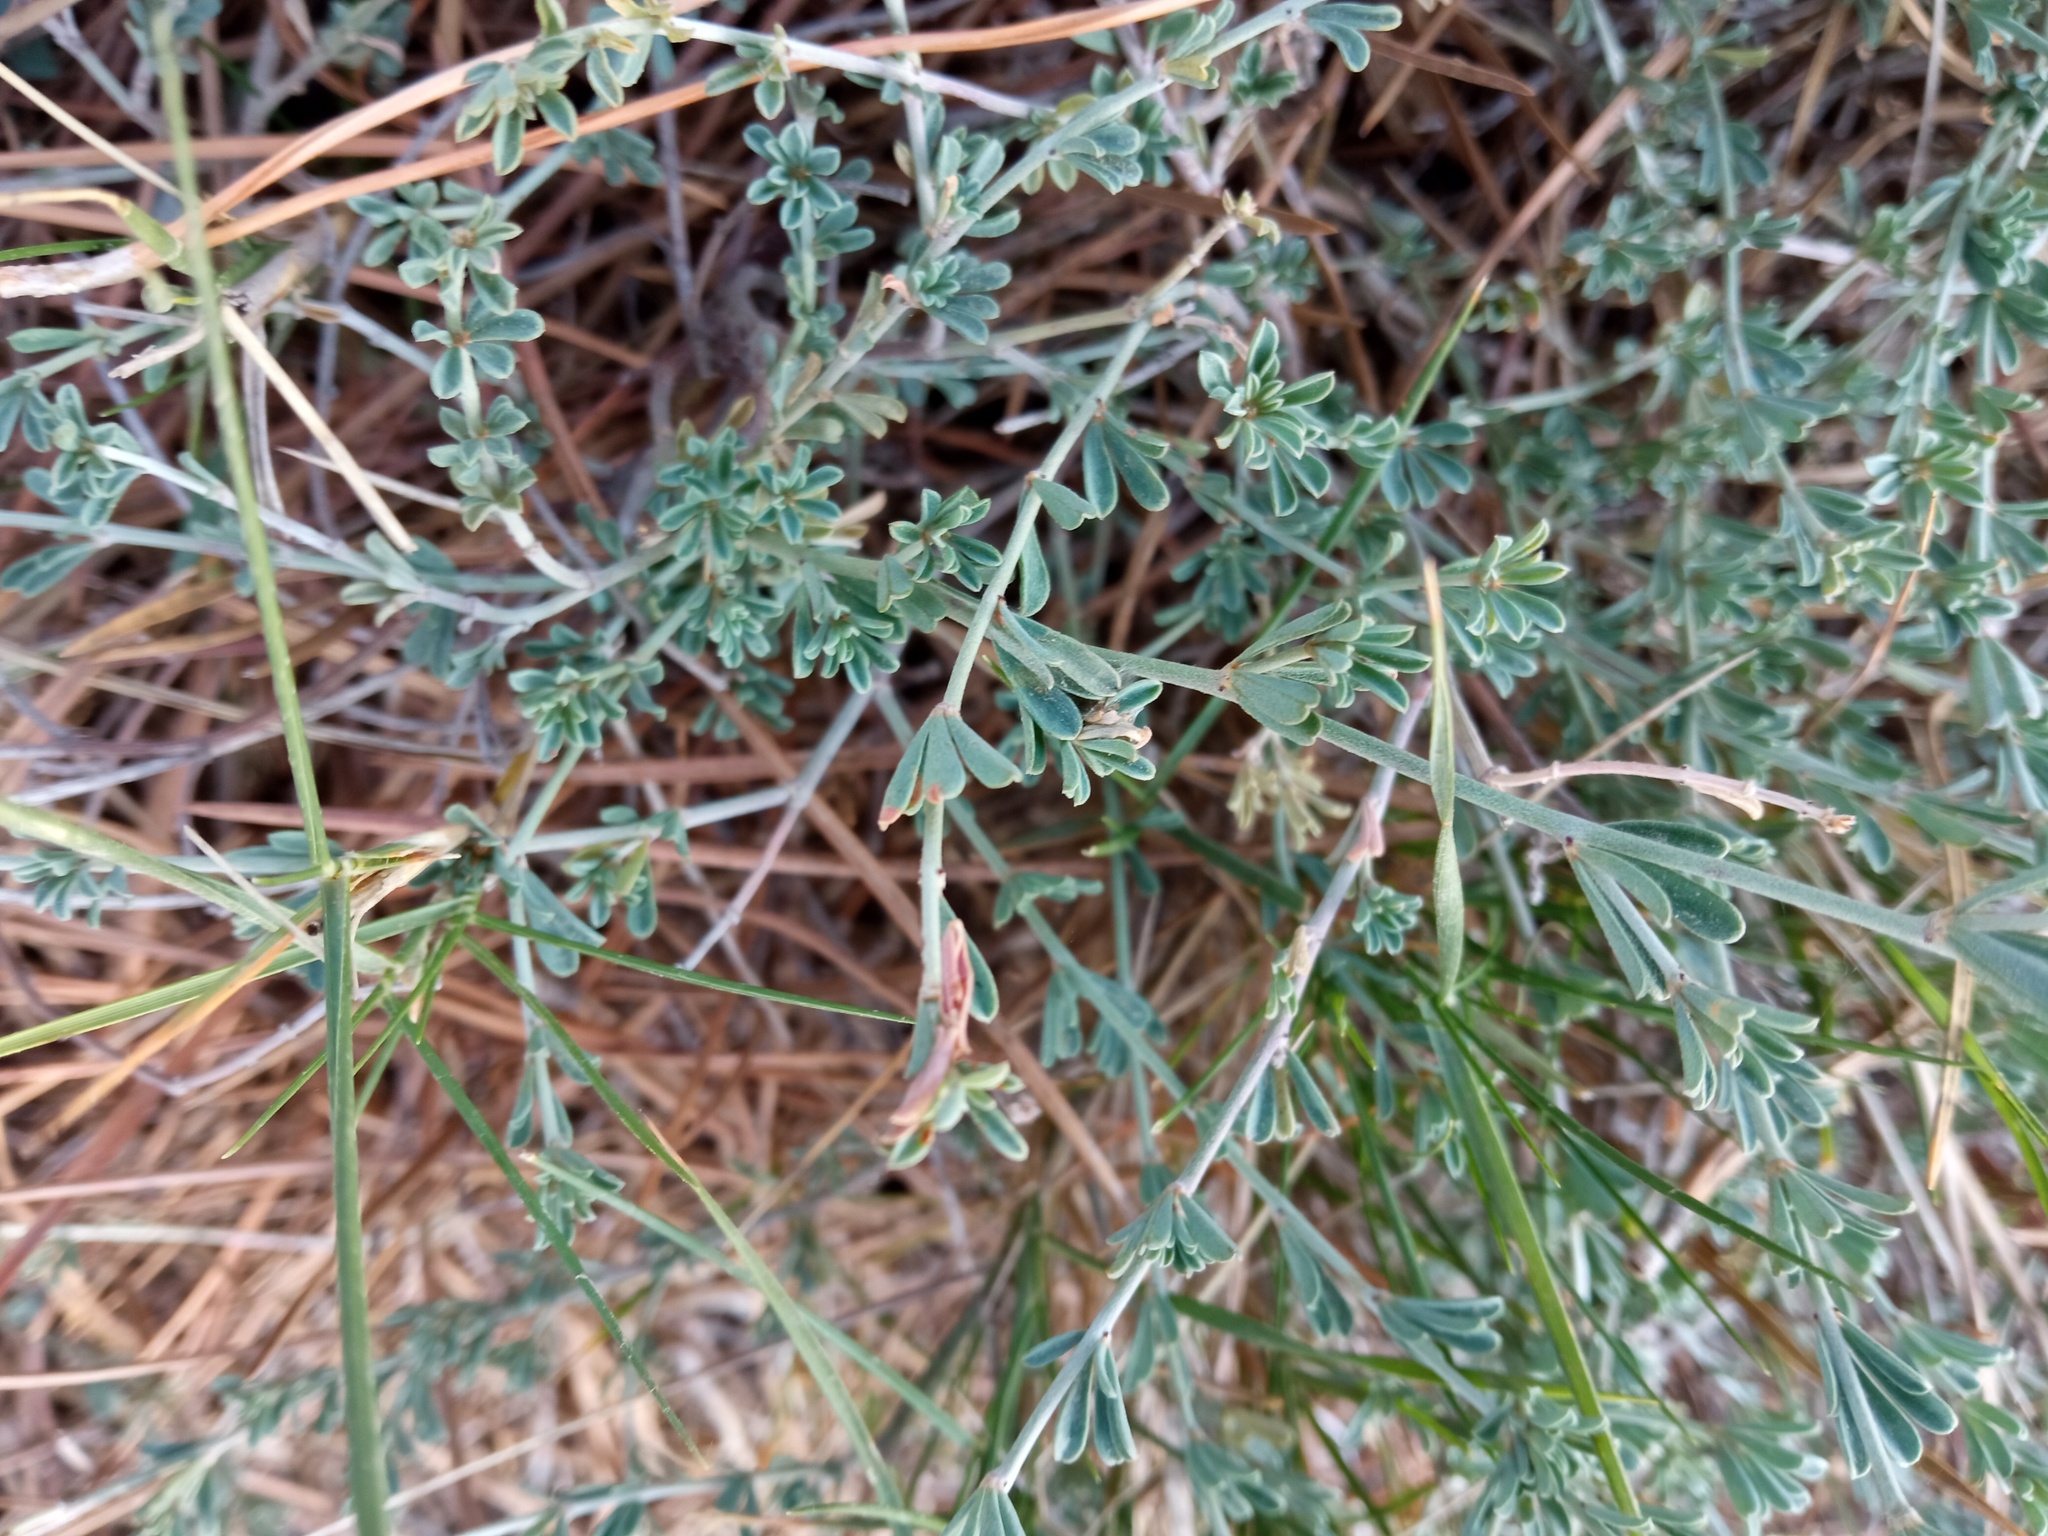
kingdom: Plantae
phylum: Tracheophyta
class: Magnoliopsida
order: Fabales
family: Fabaceae
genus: Lotus
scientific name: Lotus dorycnium
